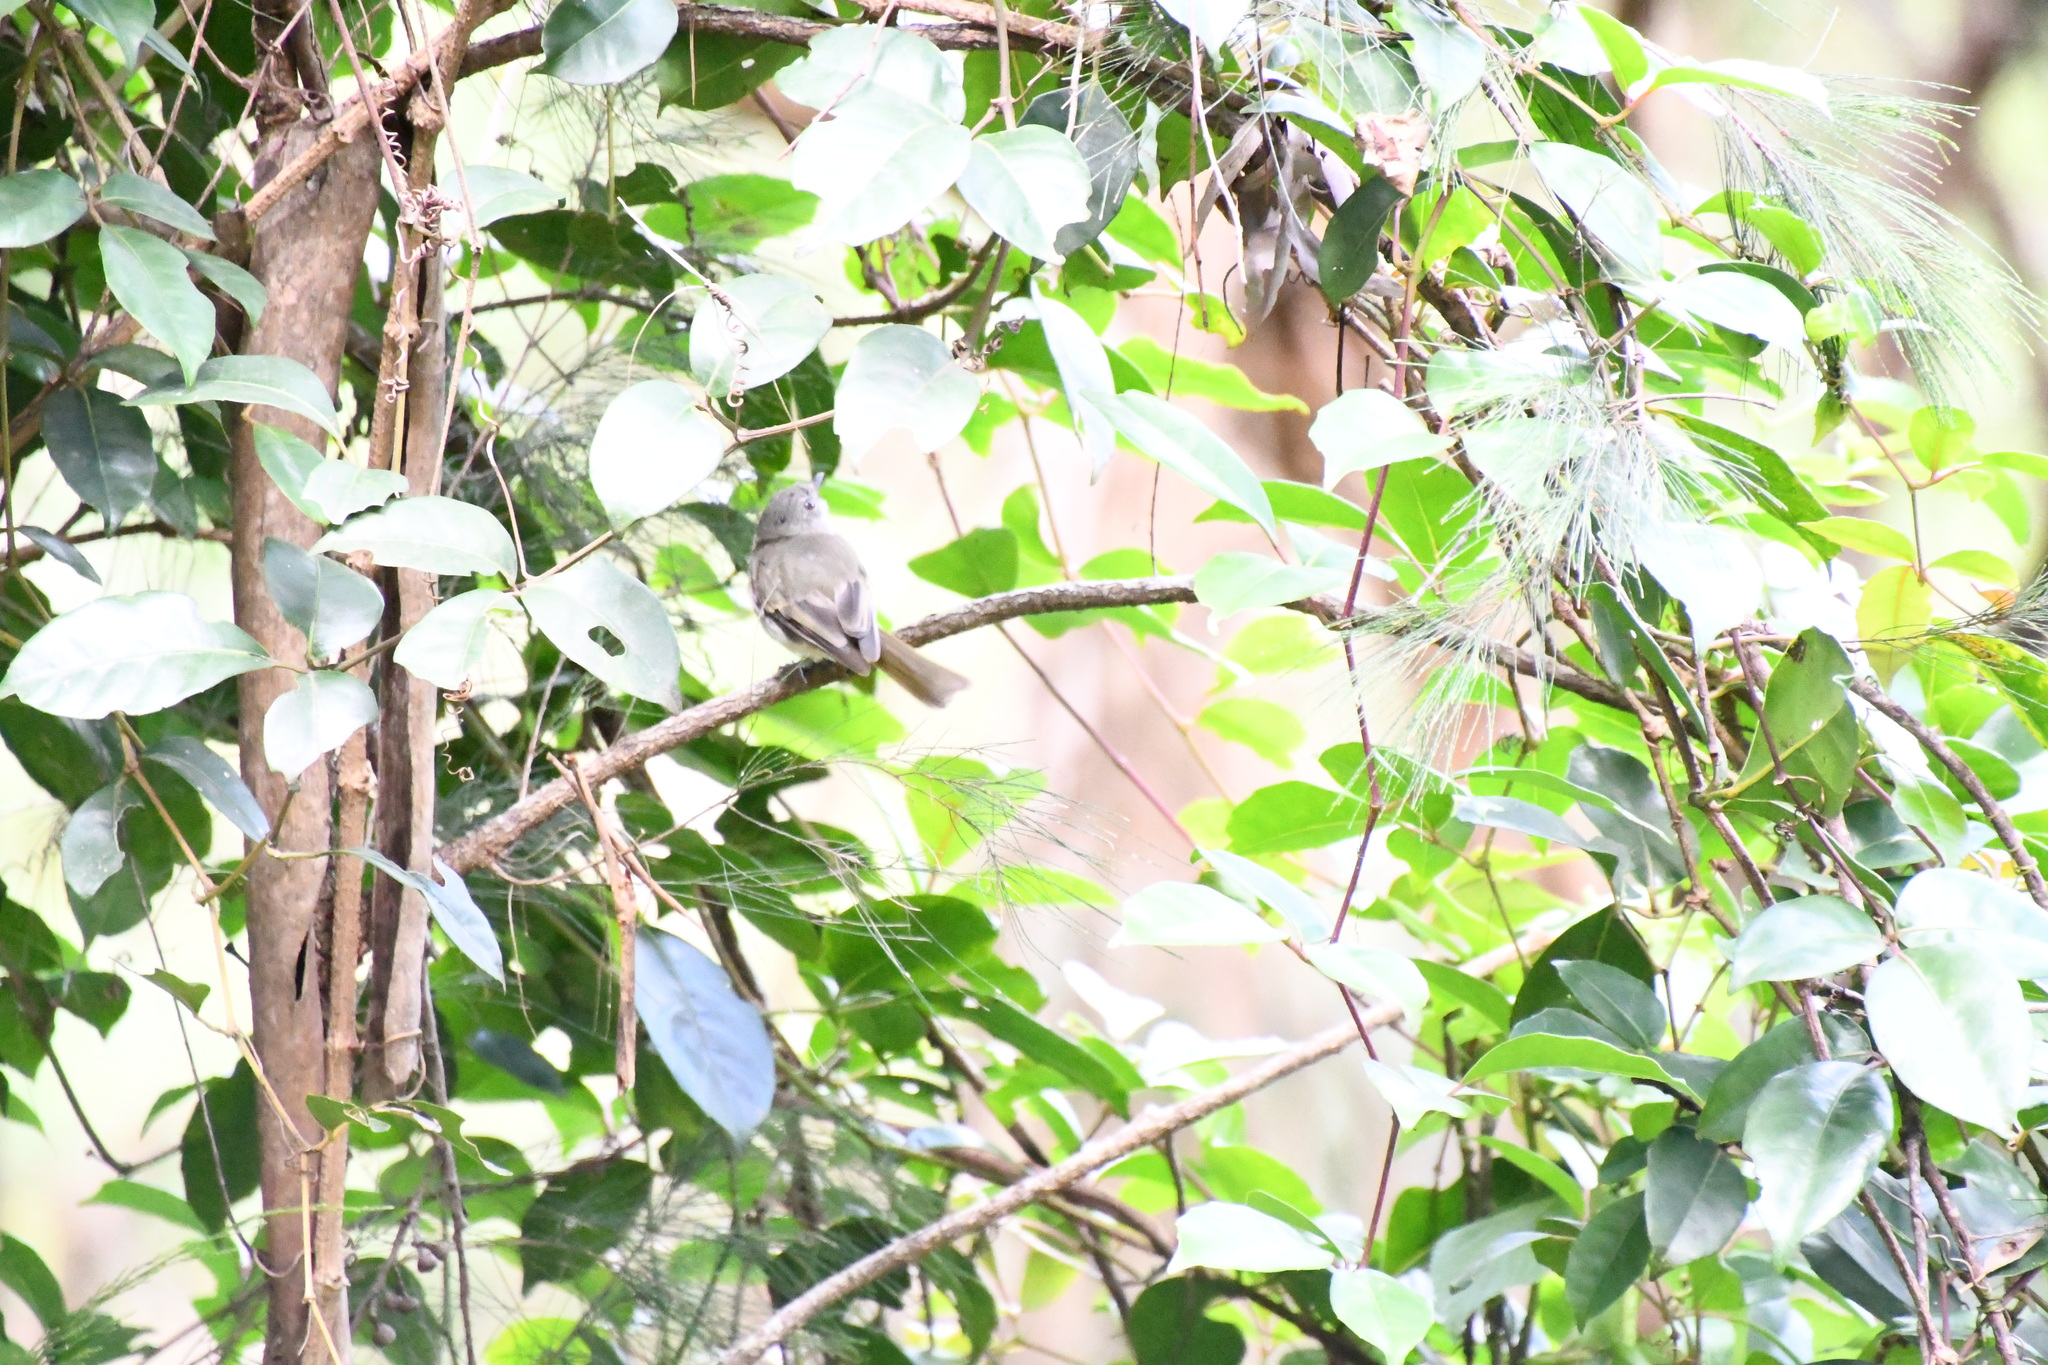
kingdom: Animalia
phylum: Chordata
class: Aves
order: Passeriformes
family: Pachycephalidae
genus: Pachycephala
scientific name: Pachycephala pectoralis
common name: Australian golden whistler
